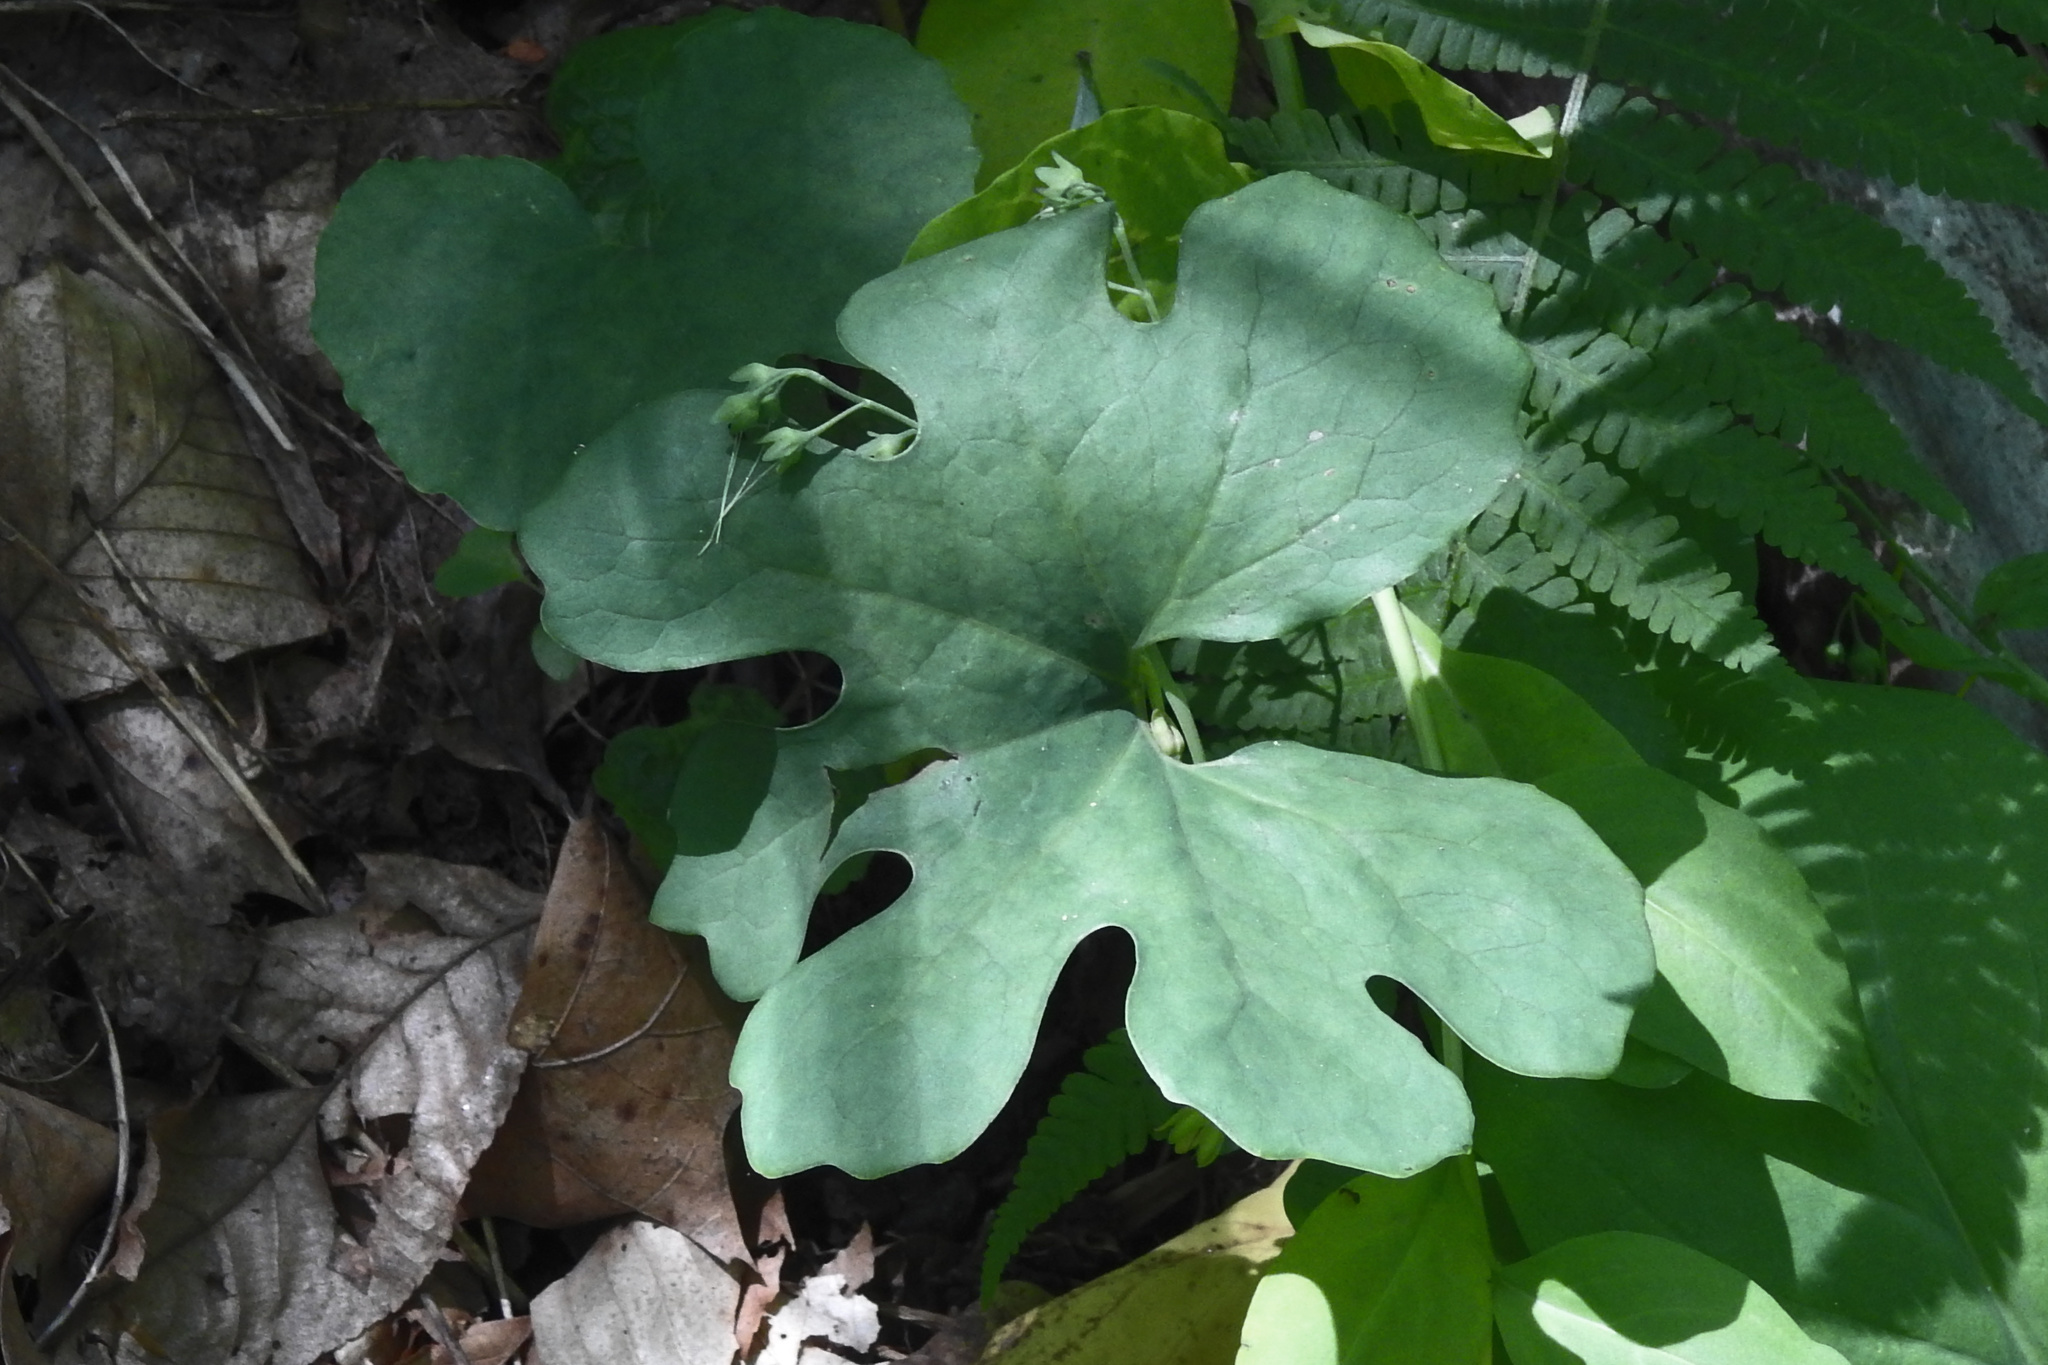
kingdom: Plantae
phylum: Tracheophyta
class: Magnoliopsida
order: Ranunculales
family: Papaveraceae
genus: Sanguinaria
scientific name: Sanguinaria canadensis
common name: Bloodroot
